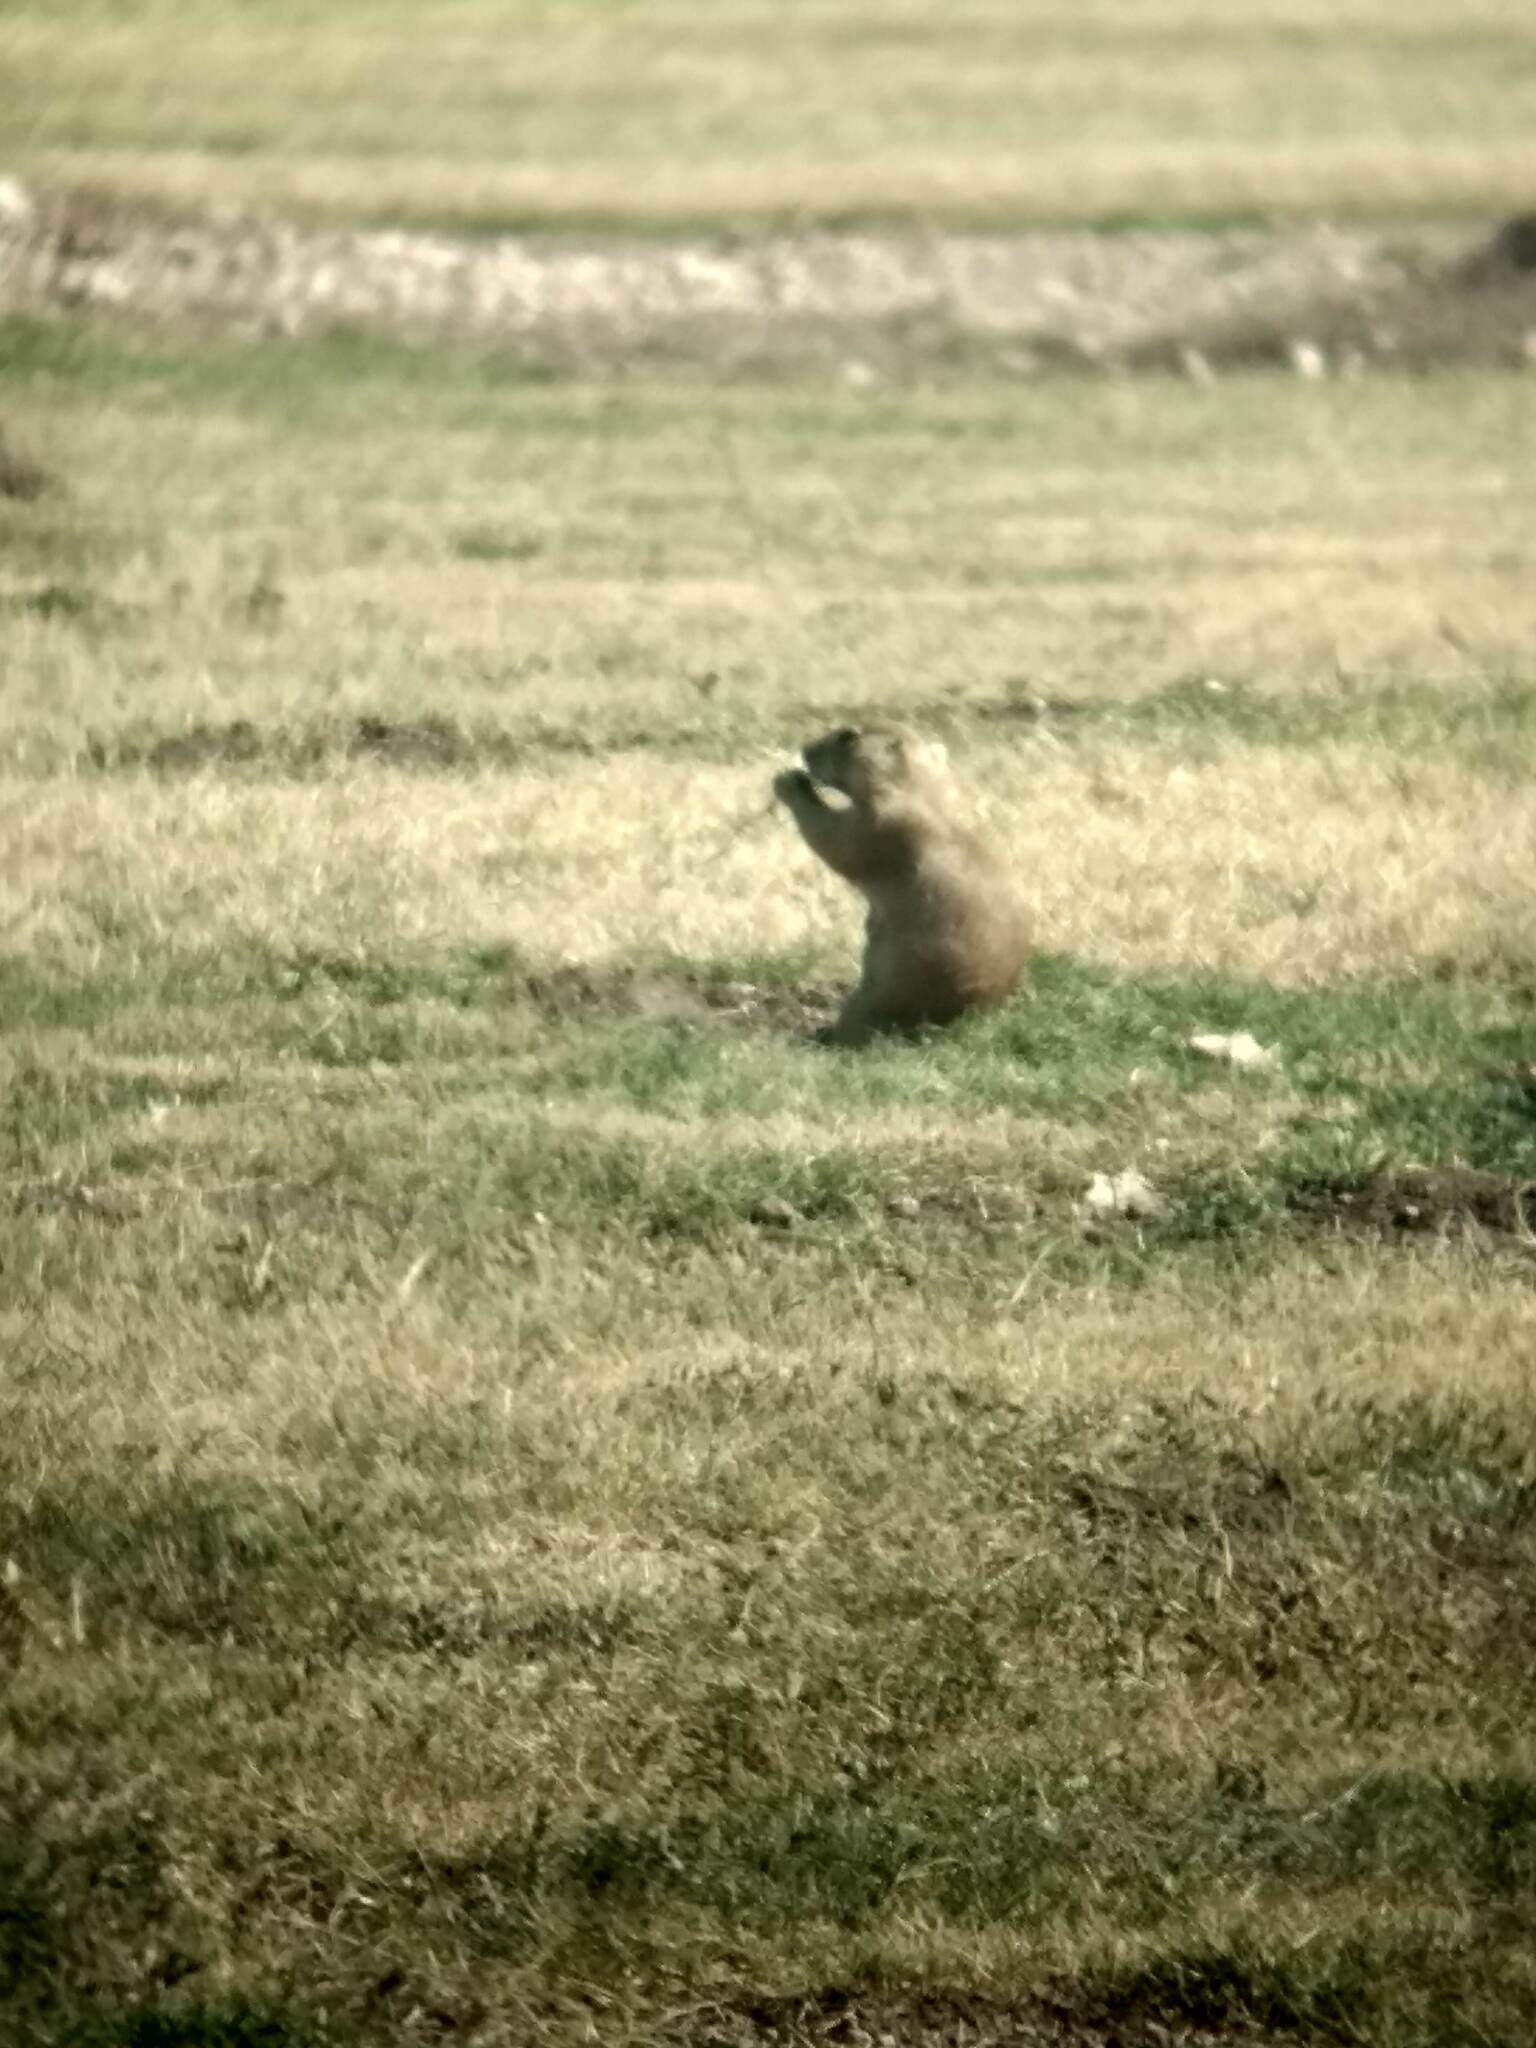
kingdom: Animalia
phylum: Chordata
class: Mammalia
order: Rodentia
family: Sciuridae
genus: Cynomys
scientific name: Cynomys ludovicianus
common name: Black-tailed prairie dog
